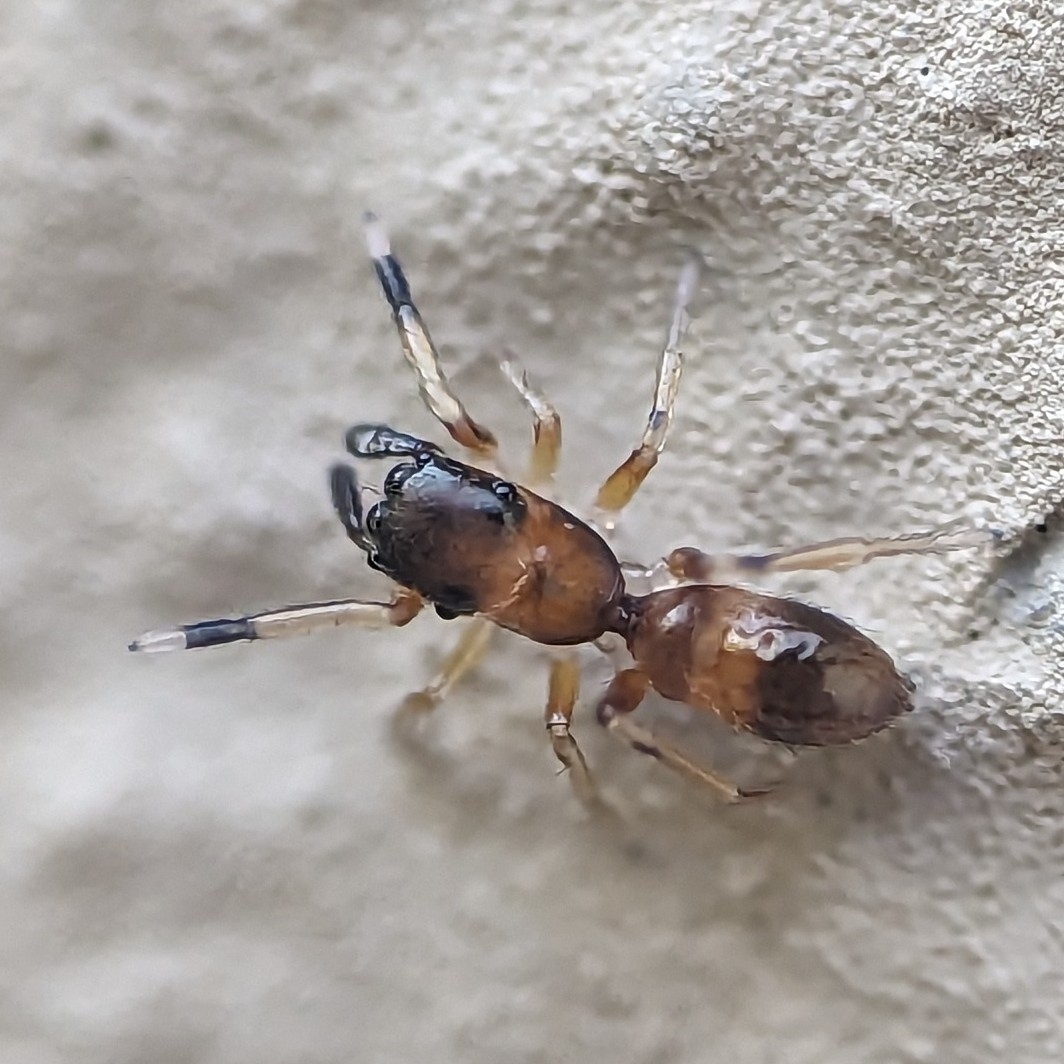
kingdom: Animalia
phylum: Arthropoda
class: Arachnida
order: Araneae
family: Salticidae
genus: Myrmarachne
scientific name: Myrmarachne formicaria
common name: Ant mimic jumping spider
